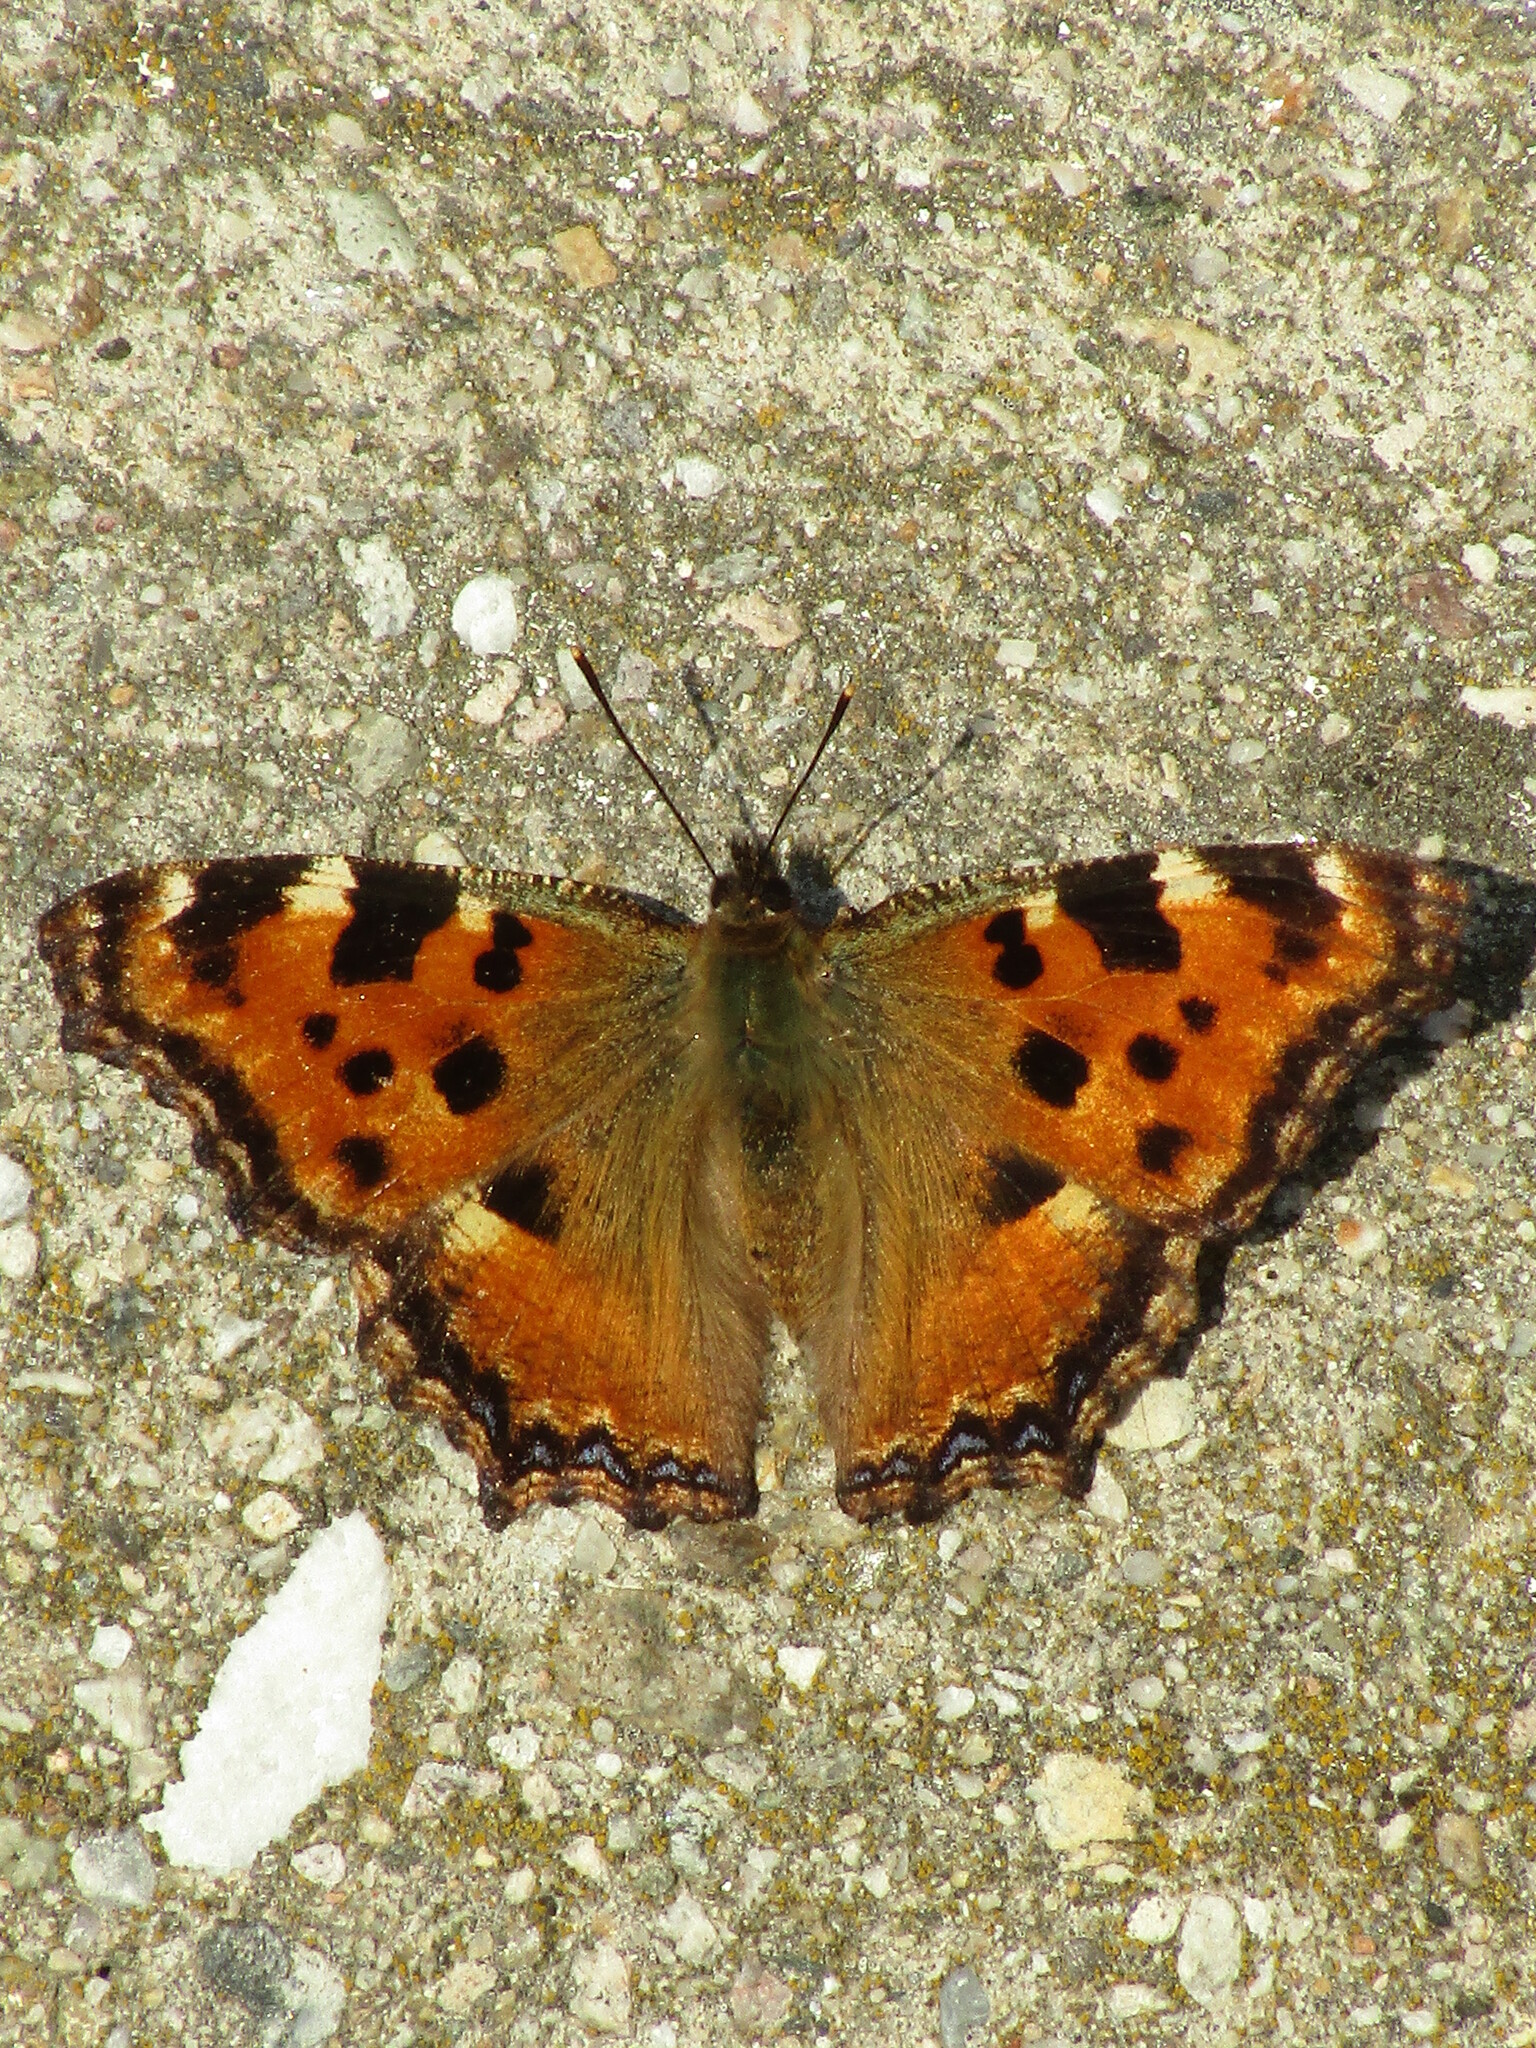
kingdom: Animalia
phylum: Arthropoda
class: Insecta
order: Lepidoptera
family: Nymphalidae
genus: Nymphalis
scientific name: Nymphalis polychloros
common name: Large tortoiseshell
